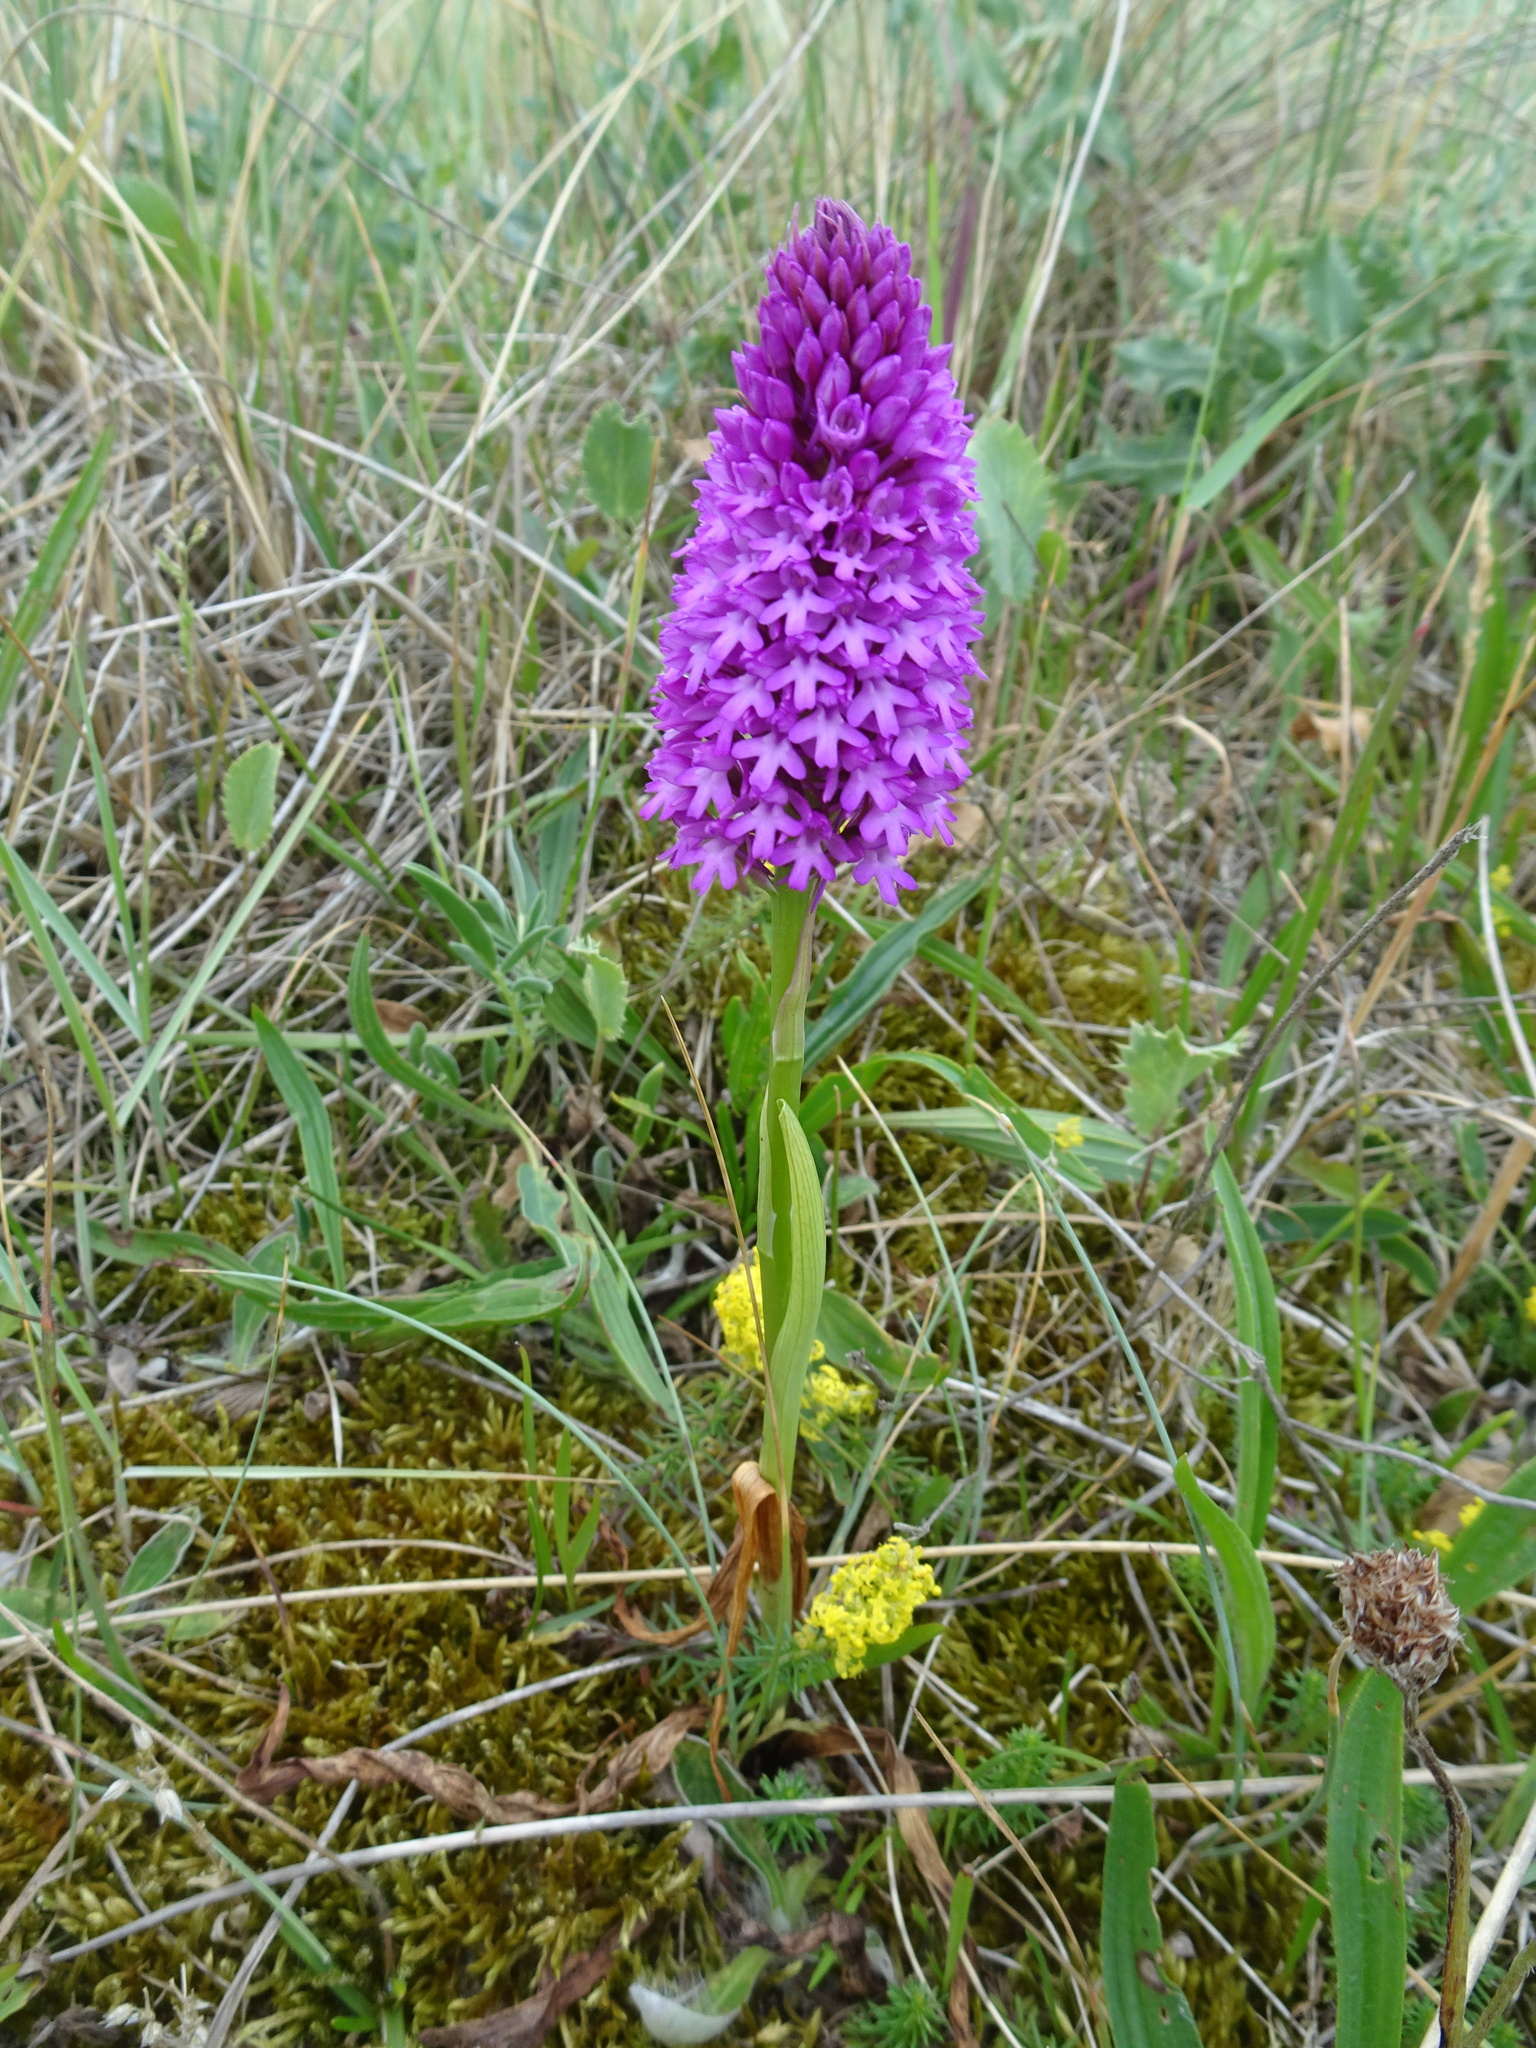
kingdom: Plantae
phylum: Tracheophyta
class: Liliopsida
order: Asparagales
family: Orchidaceae
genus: Anacamptis
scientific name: Anacamptis pyramidalis
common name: Pyramidal orchid
